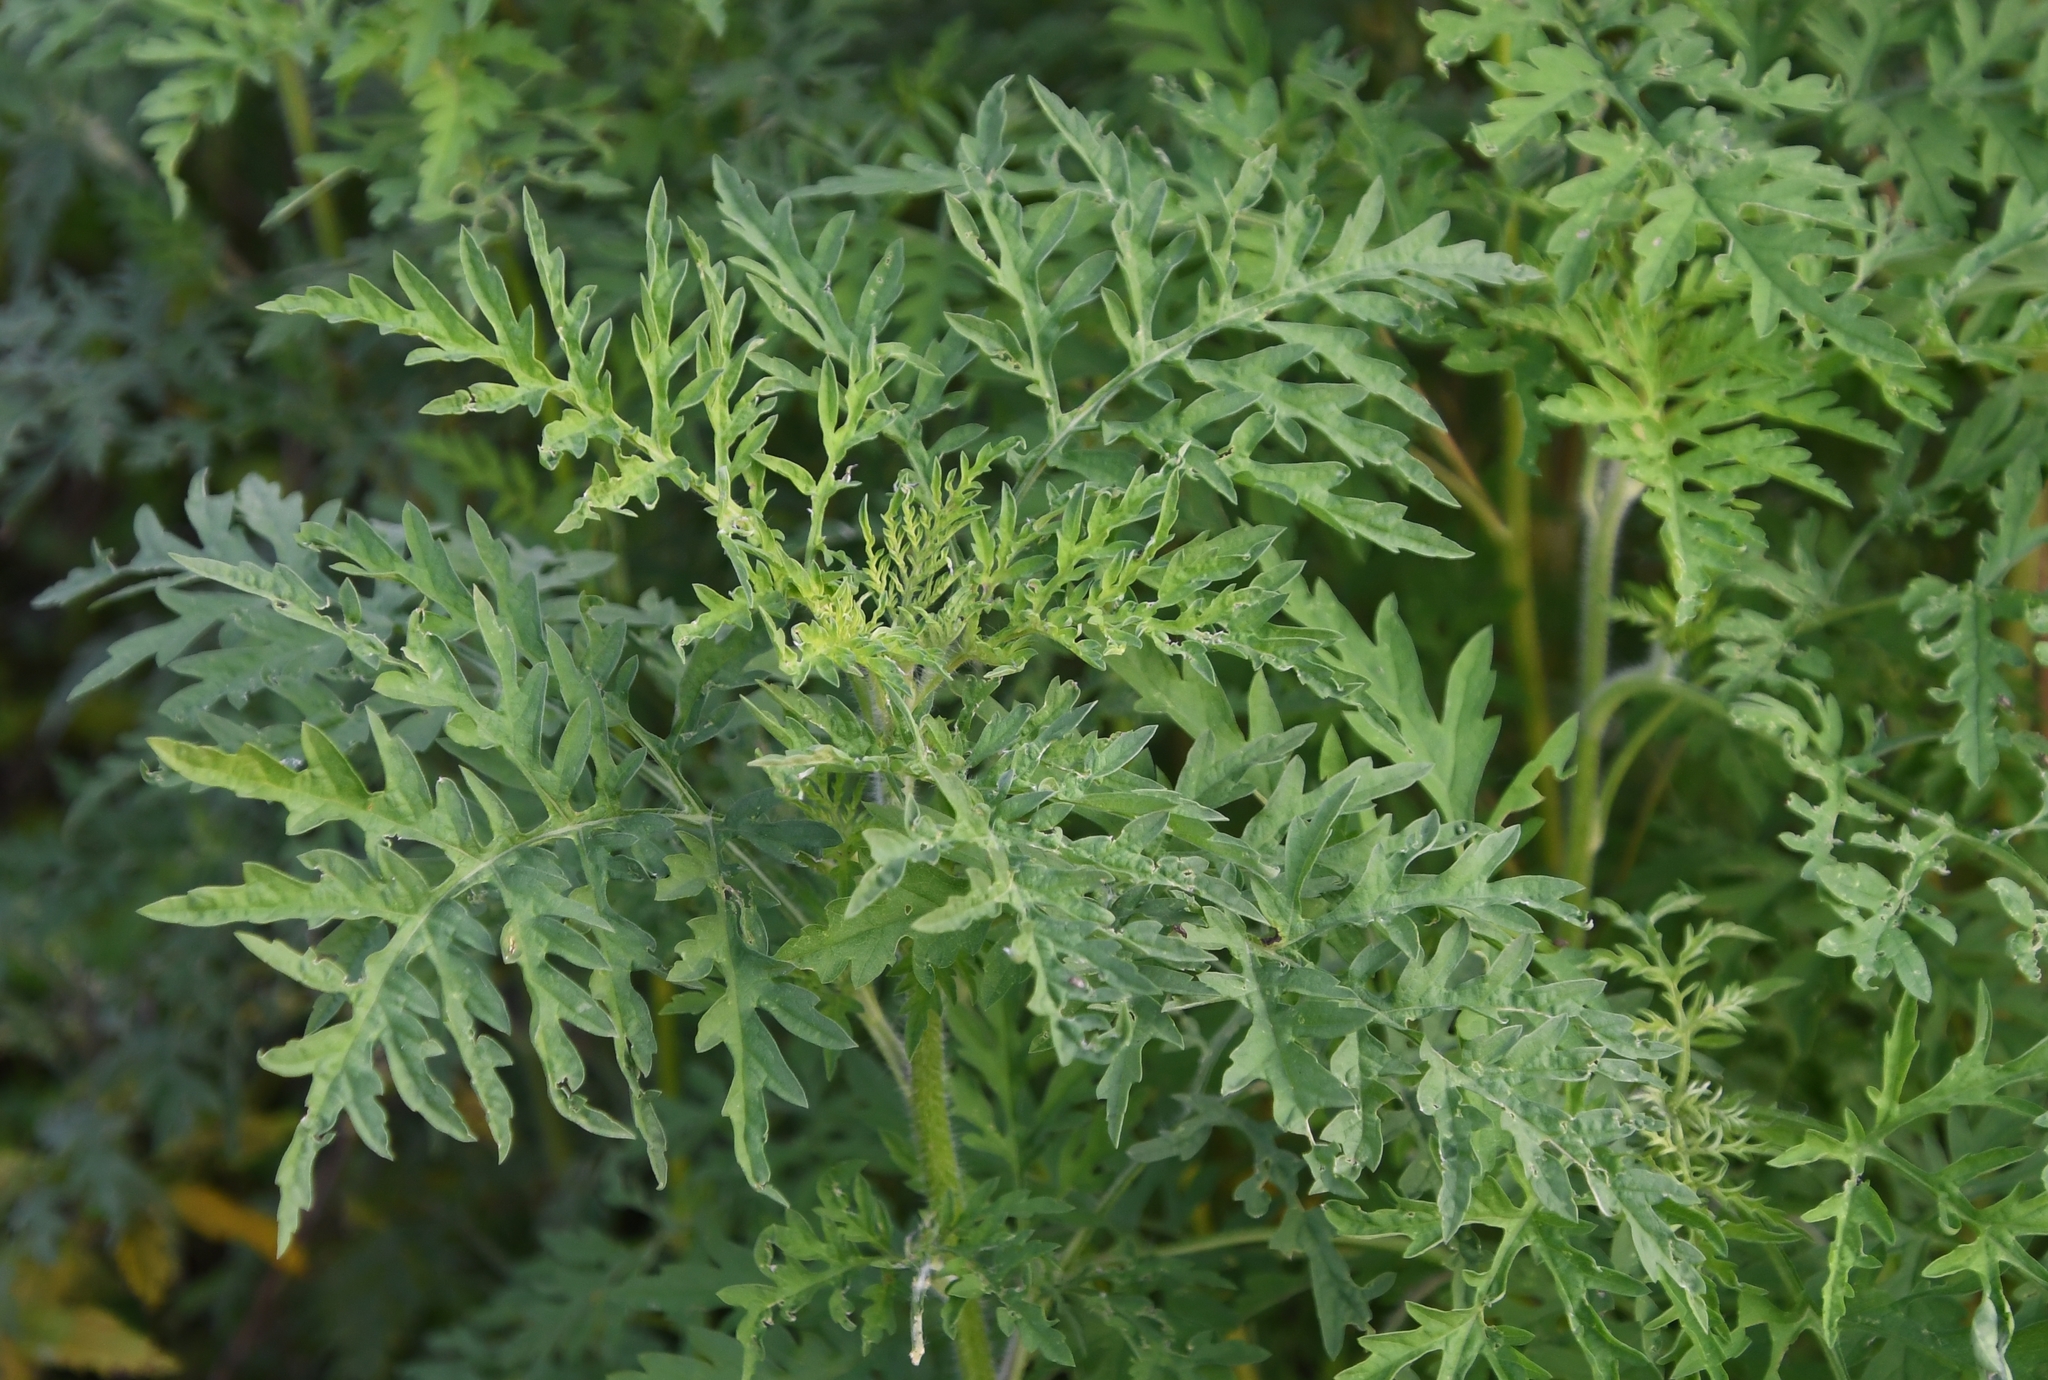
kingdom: Plantae
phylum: Tracheophyta
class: Magnoliopsida
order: Asterales
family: Asteraceae
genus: Ambrosia
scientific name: Ambrosia artemisiifolia
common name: Annual ragweed
